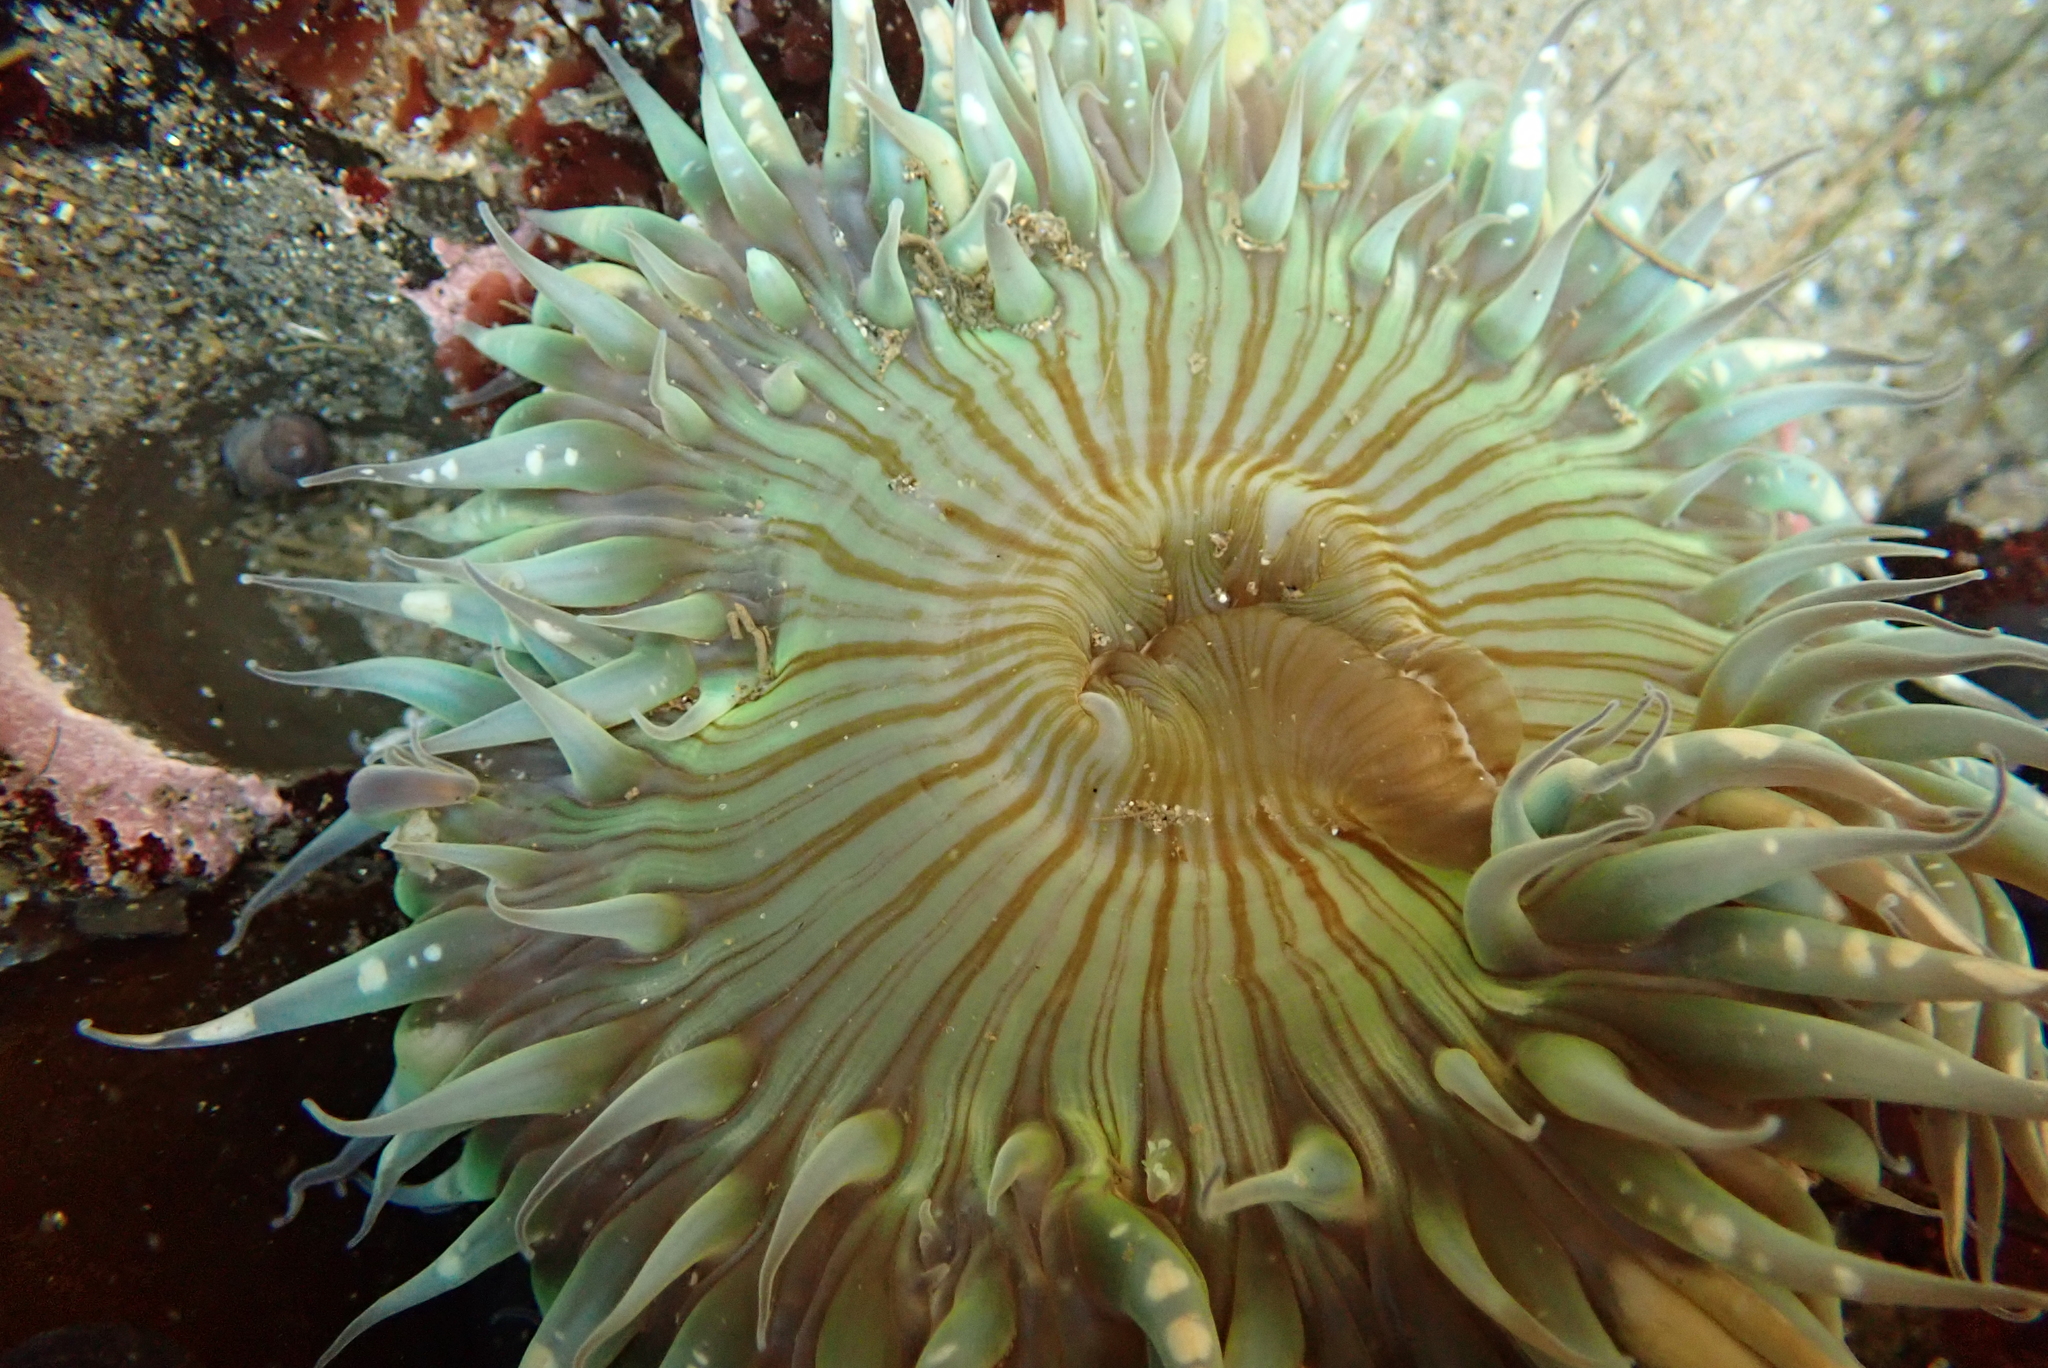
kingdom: Animalia
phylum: Cnidaria
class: Anthozoa
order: Actiniaria
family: Actiniidae
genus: Anthopleura
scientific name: Anthopleura sola
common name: Sun anemone
